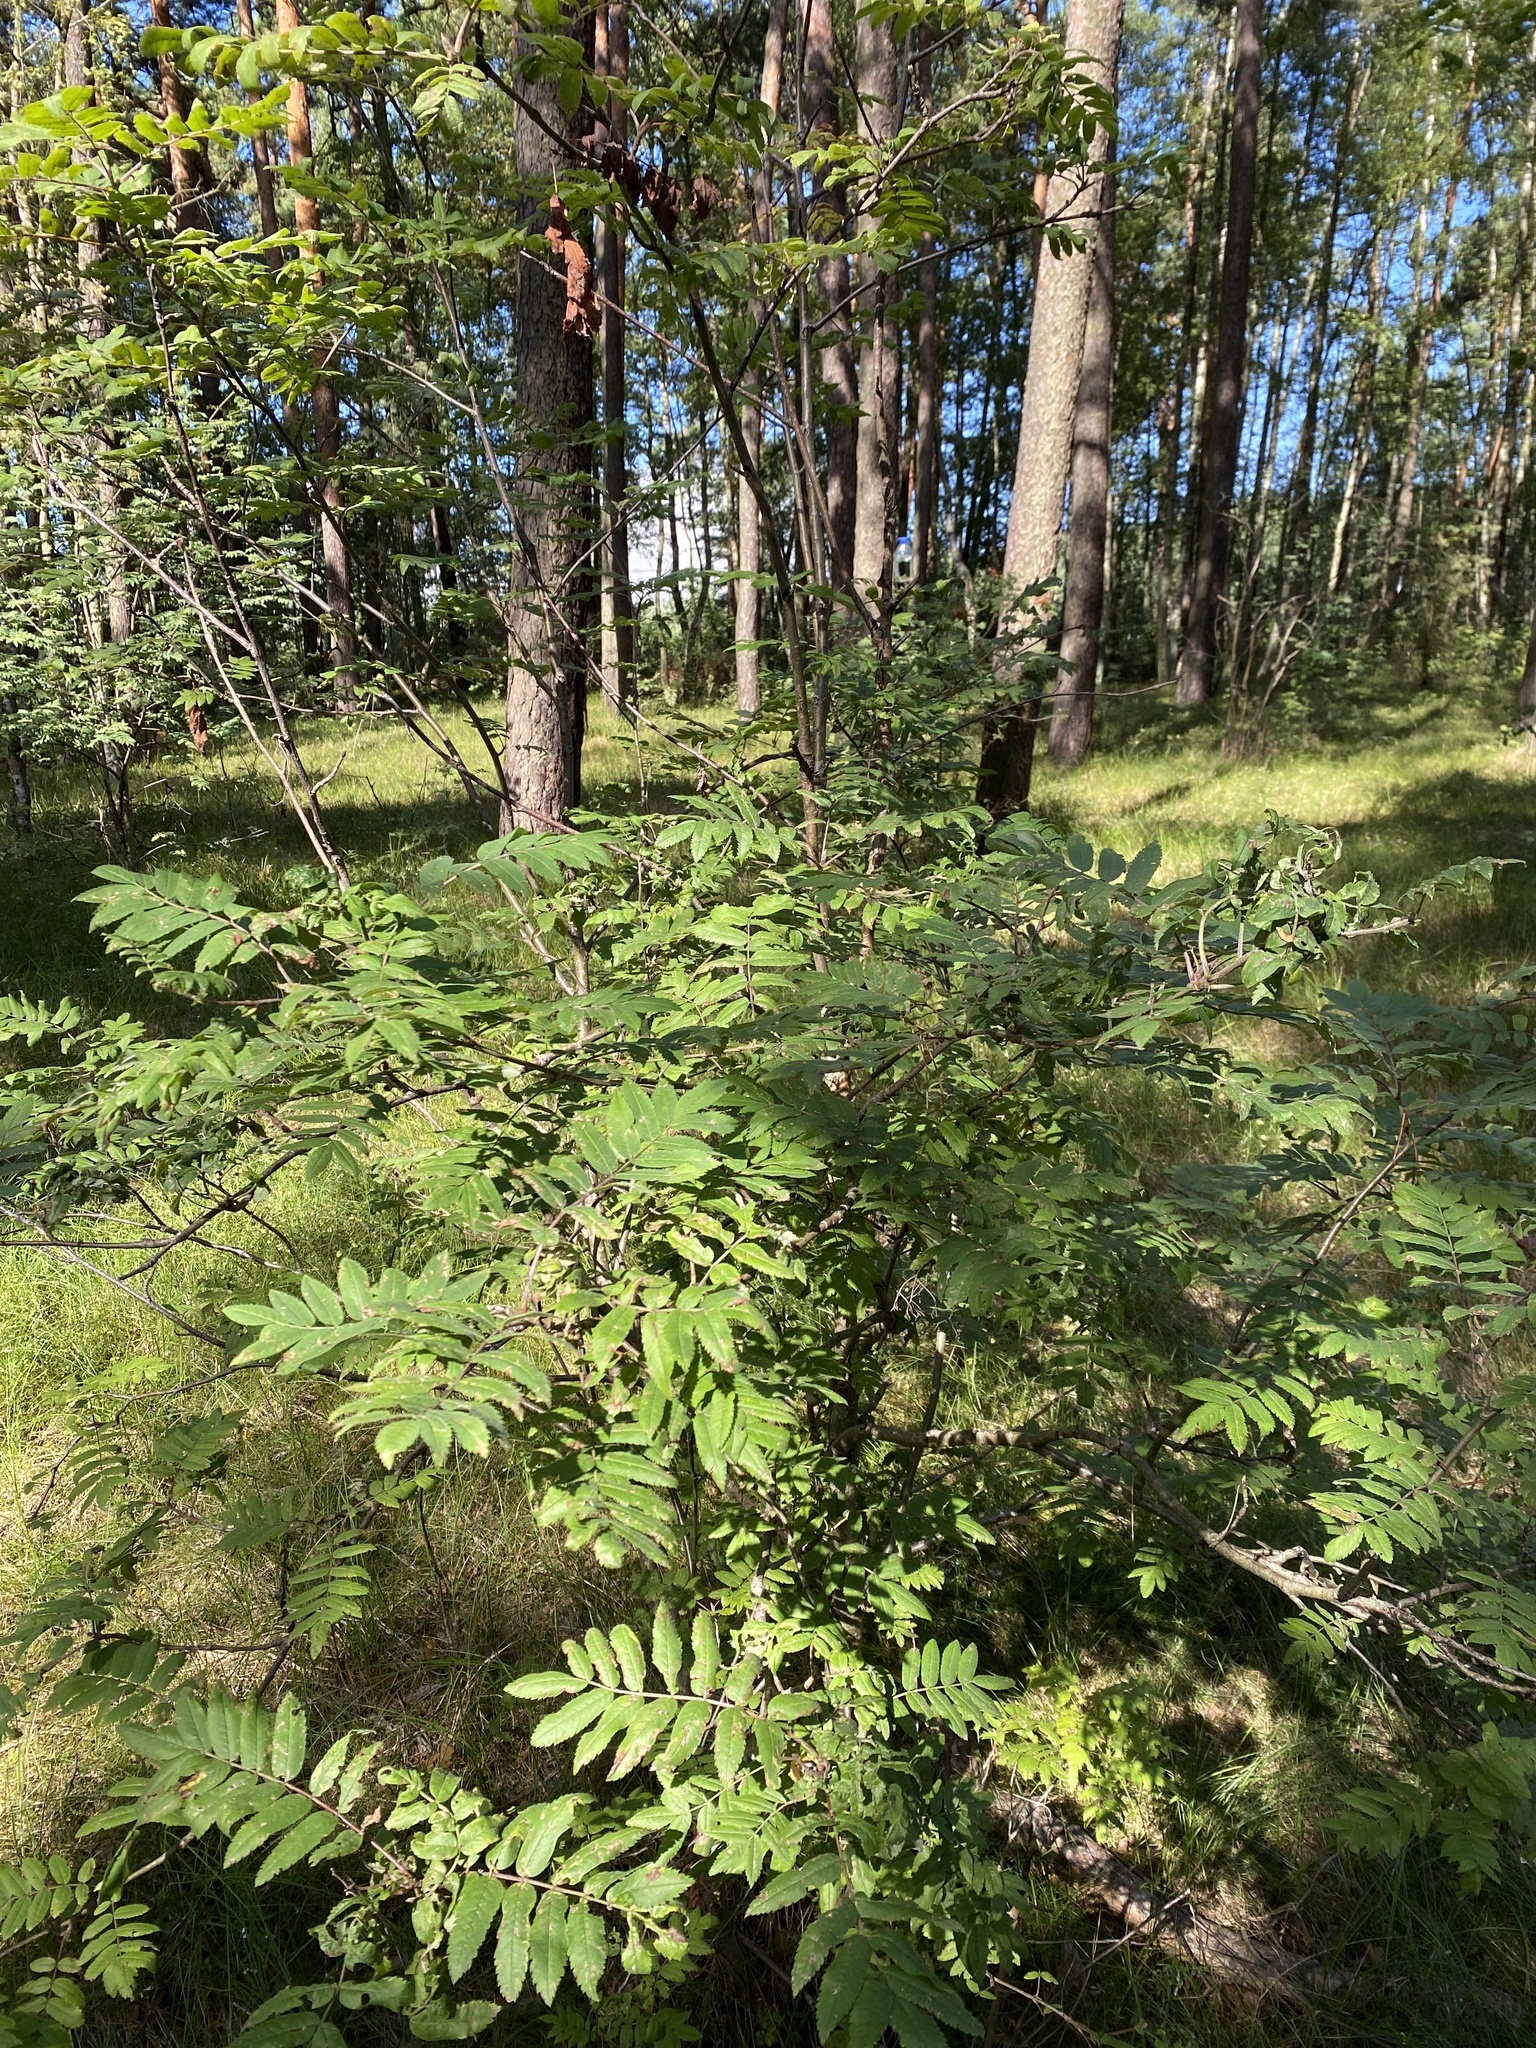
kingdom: Plantae
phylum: Tracheophyta
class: Magnoliopsida
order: Rosales
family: Rosaceae
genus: Sorbus
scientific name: Sorbus aucuparia
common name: Rowan
